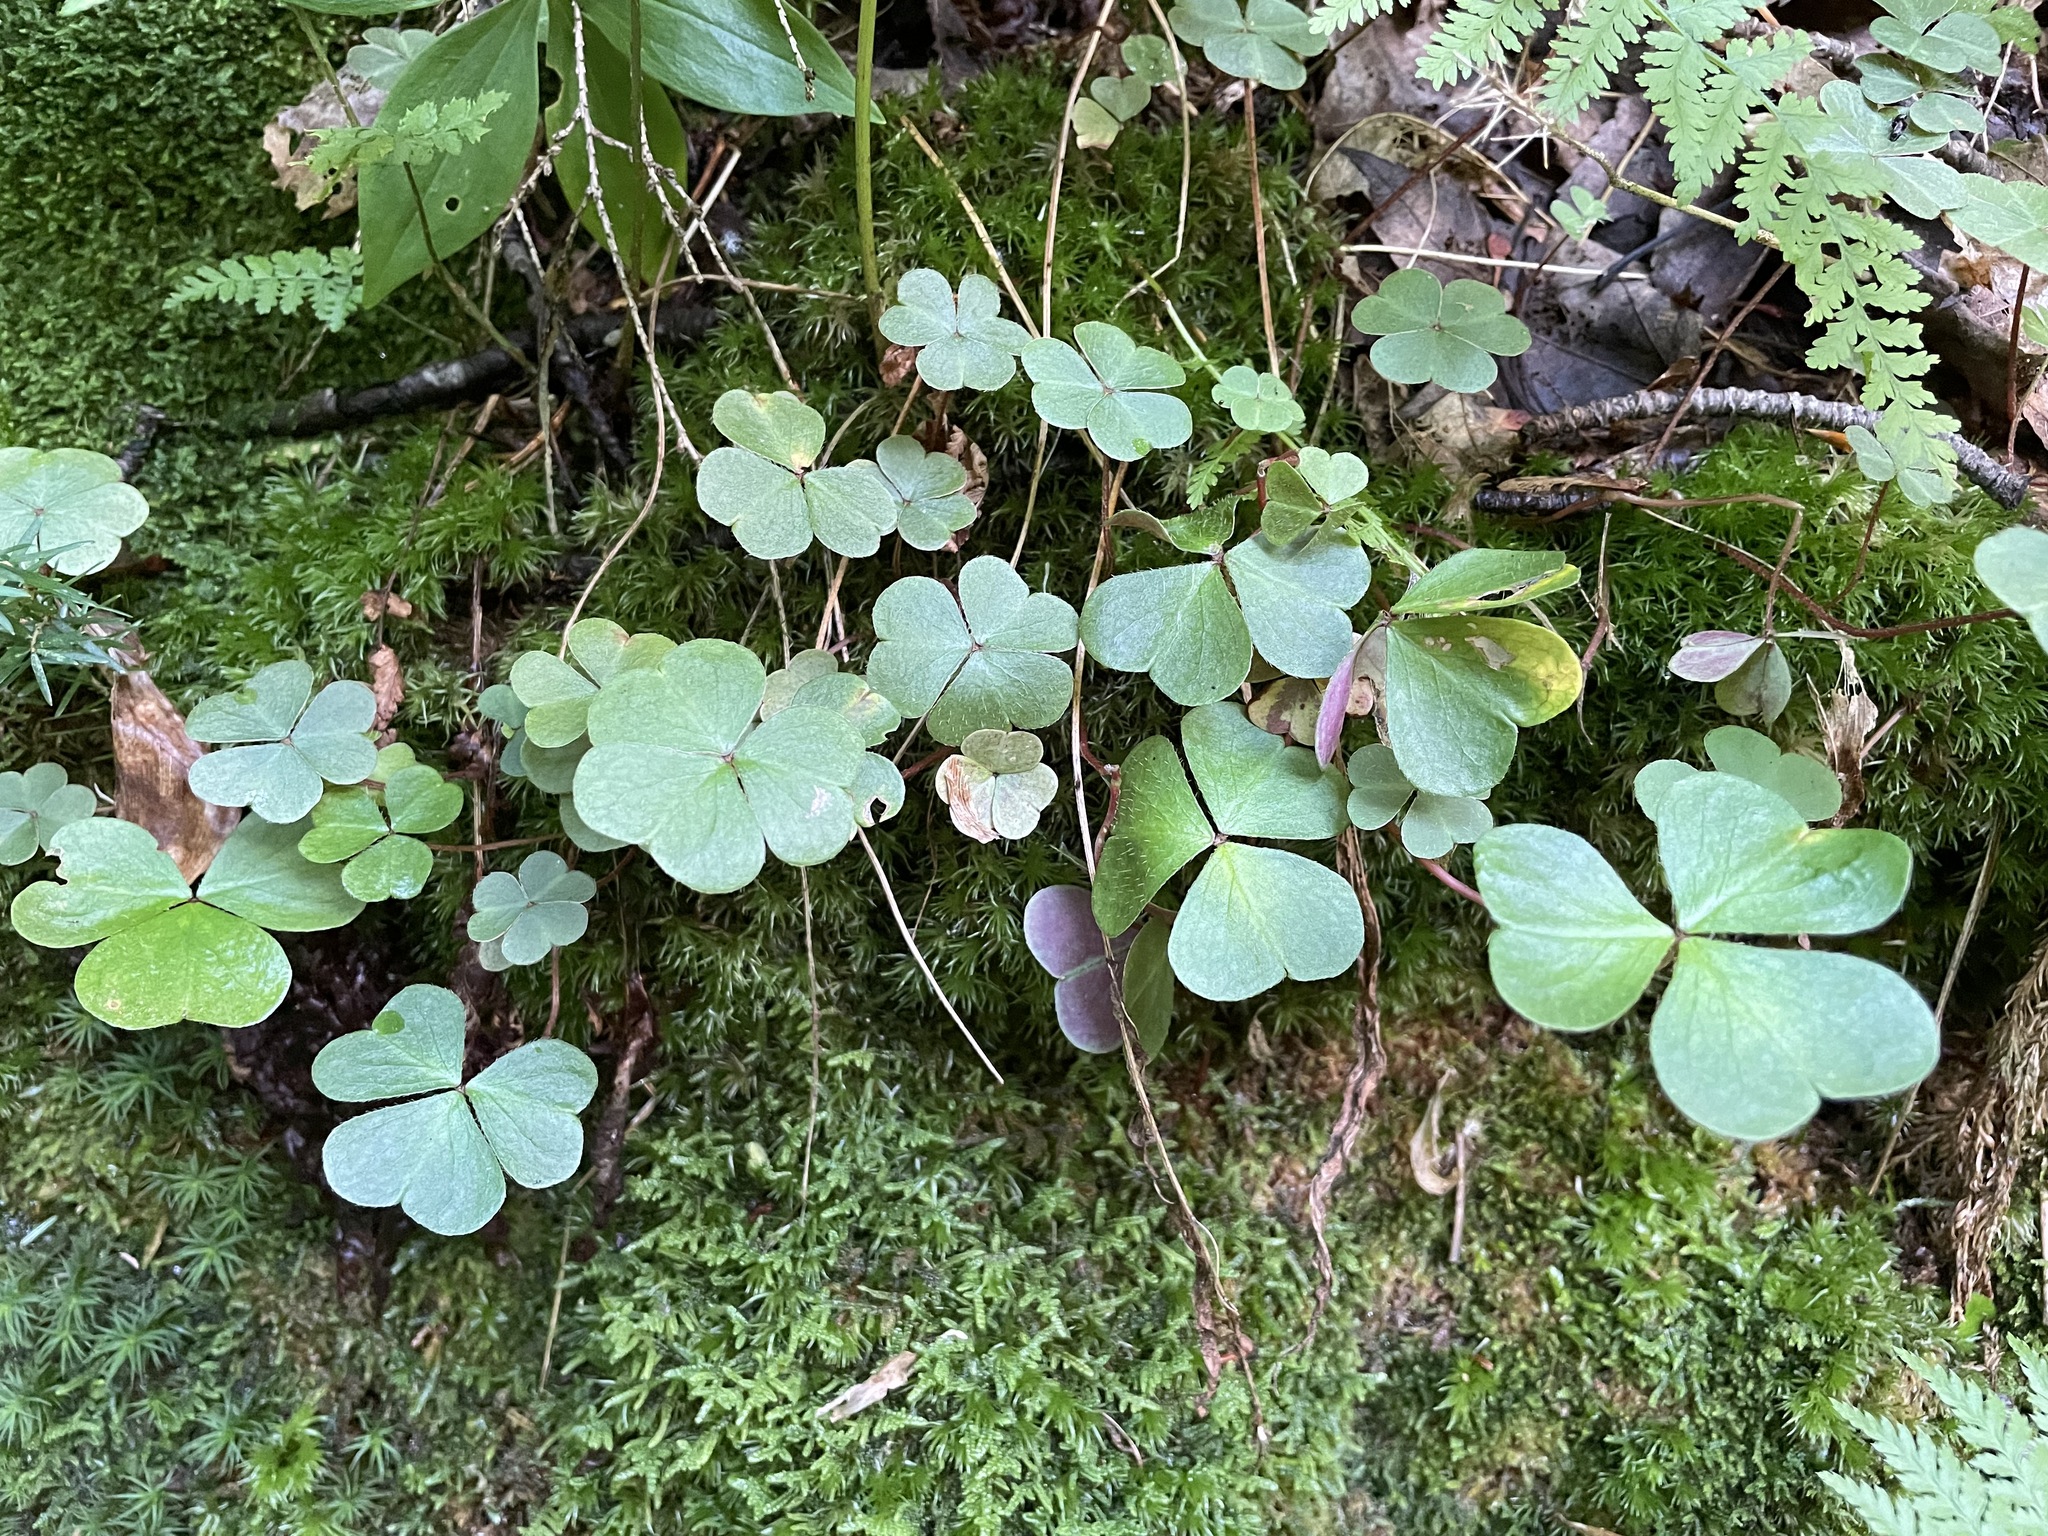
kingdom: Plantae
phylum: Tracheophyta
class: Magnoliopsida
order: Oxalidales
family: Oxalidaceae
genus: Oxalis
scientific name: Oxalis montana
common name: American wood-sorrel
